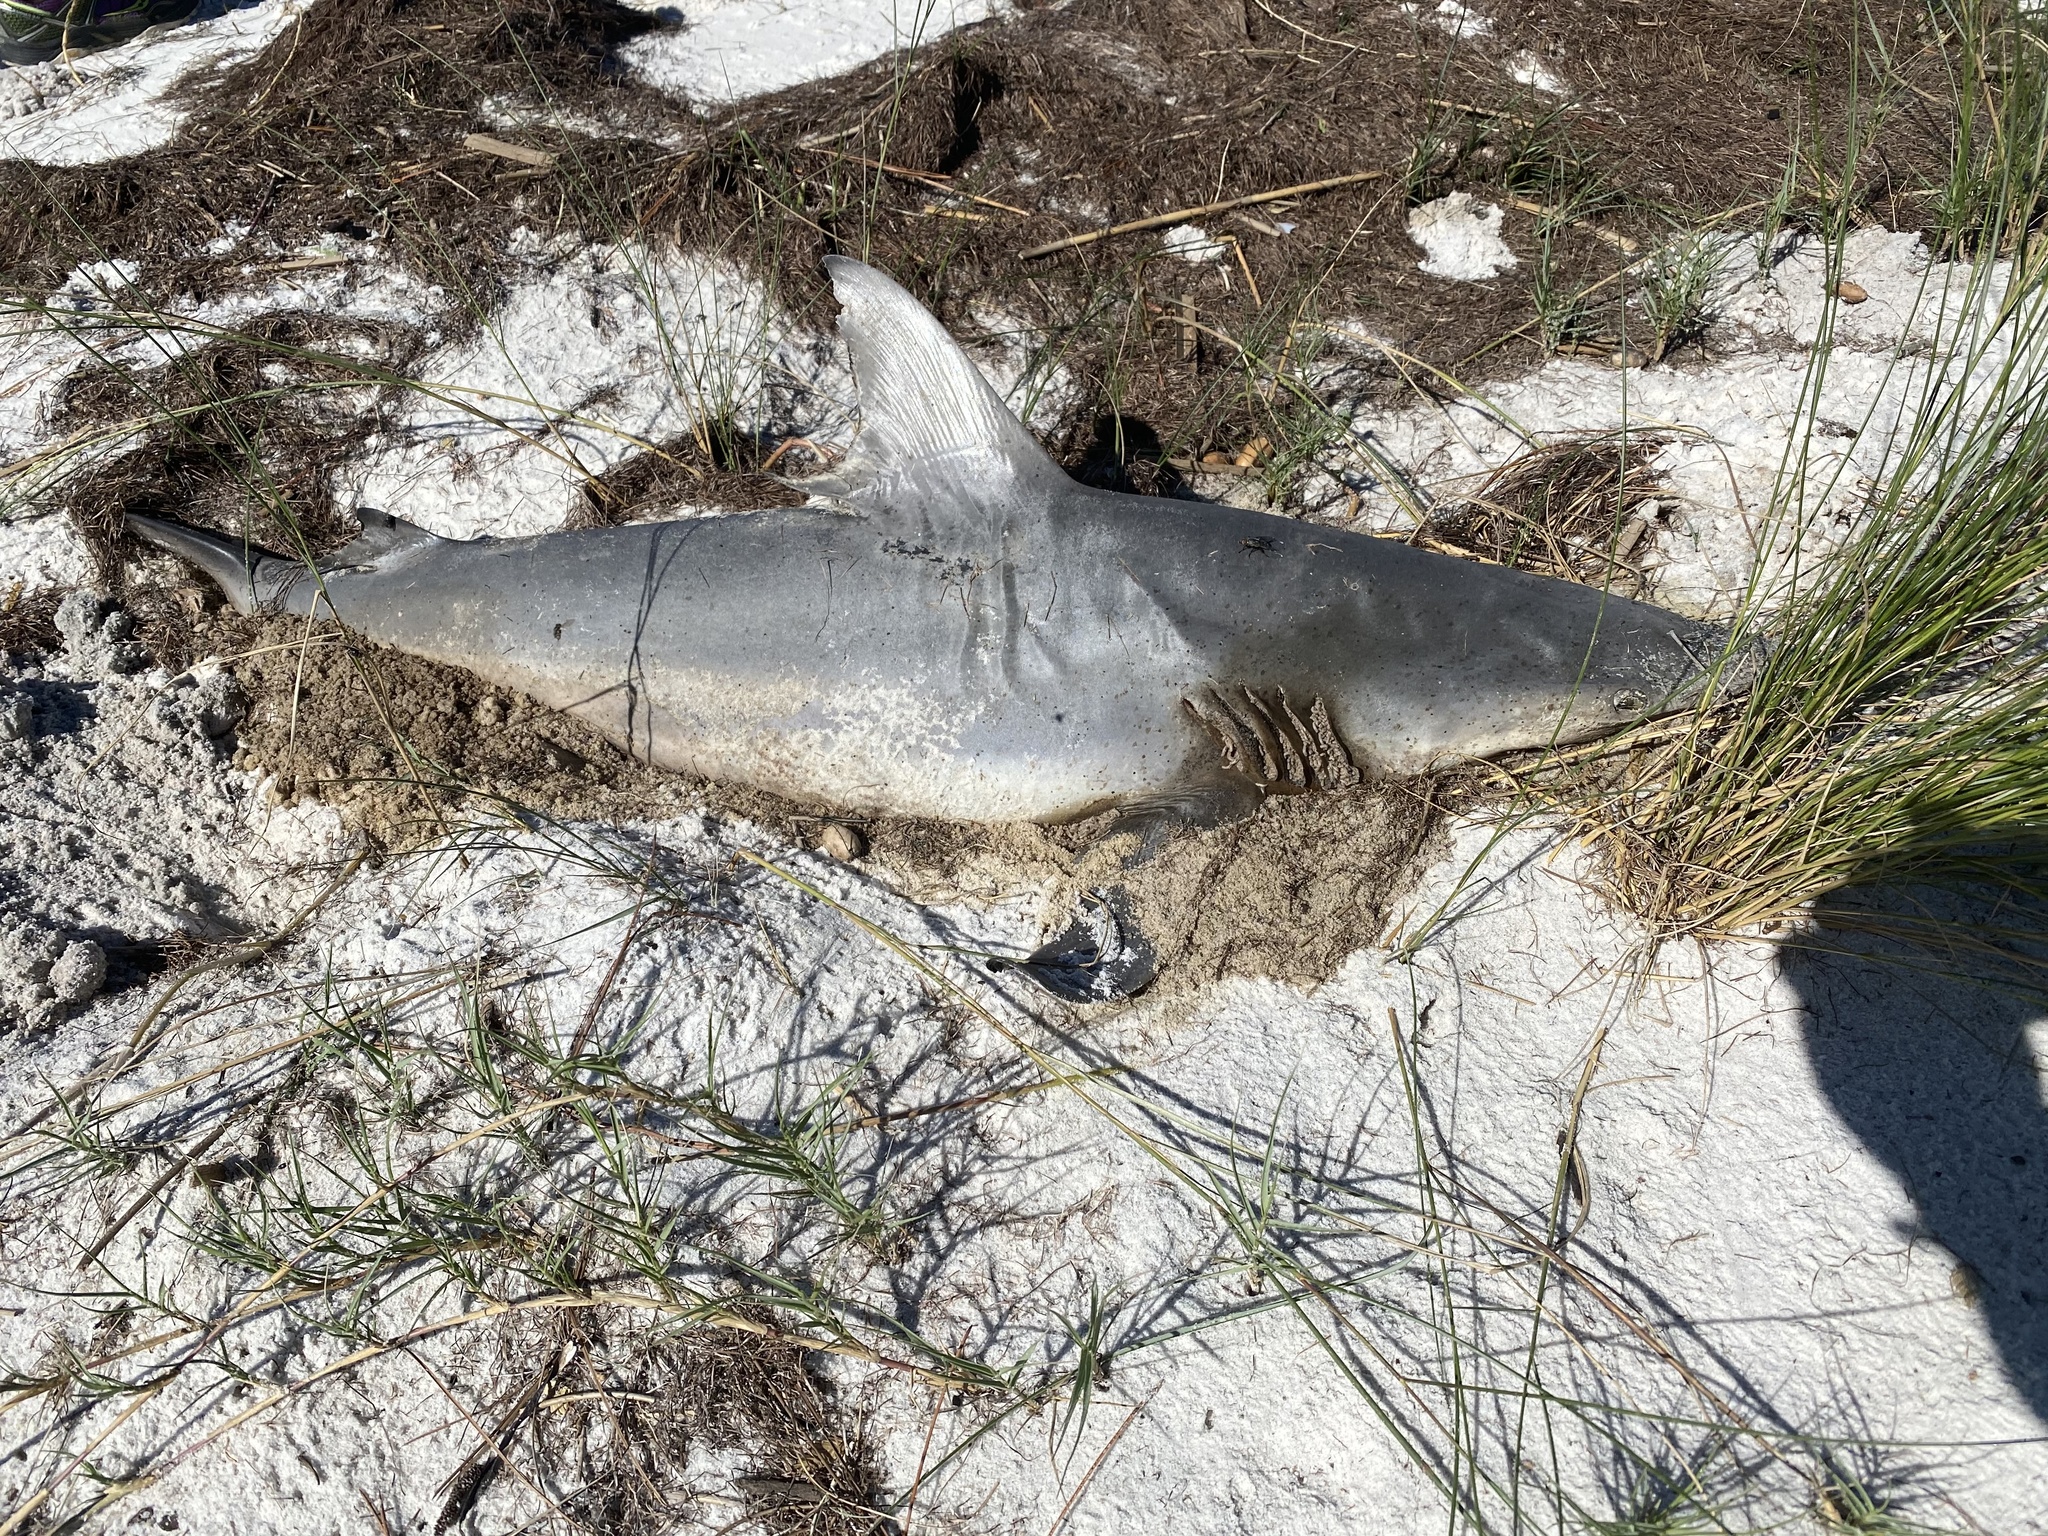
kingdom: Animalia
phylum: Chordata
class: Elasmobranchii
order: Carcharhiniformes
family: Carcharhinidae
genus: Carcharhinus
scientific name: Carcharhinus limbatus
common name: Blacktip shark
